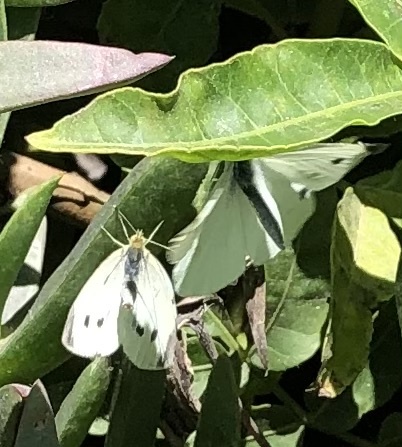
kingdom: Animalia
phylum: Arthropoda
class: Insecta
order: Lepidoptera
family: Pieridae
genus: Pieris
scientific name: Pieris rapae
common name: Small white
